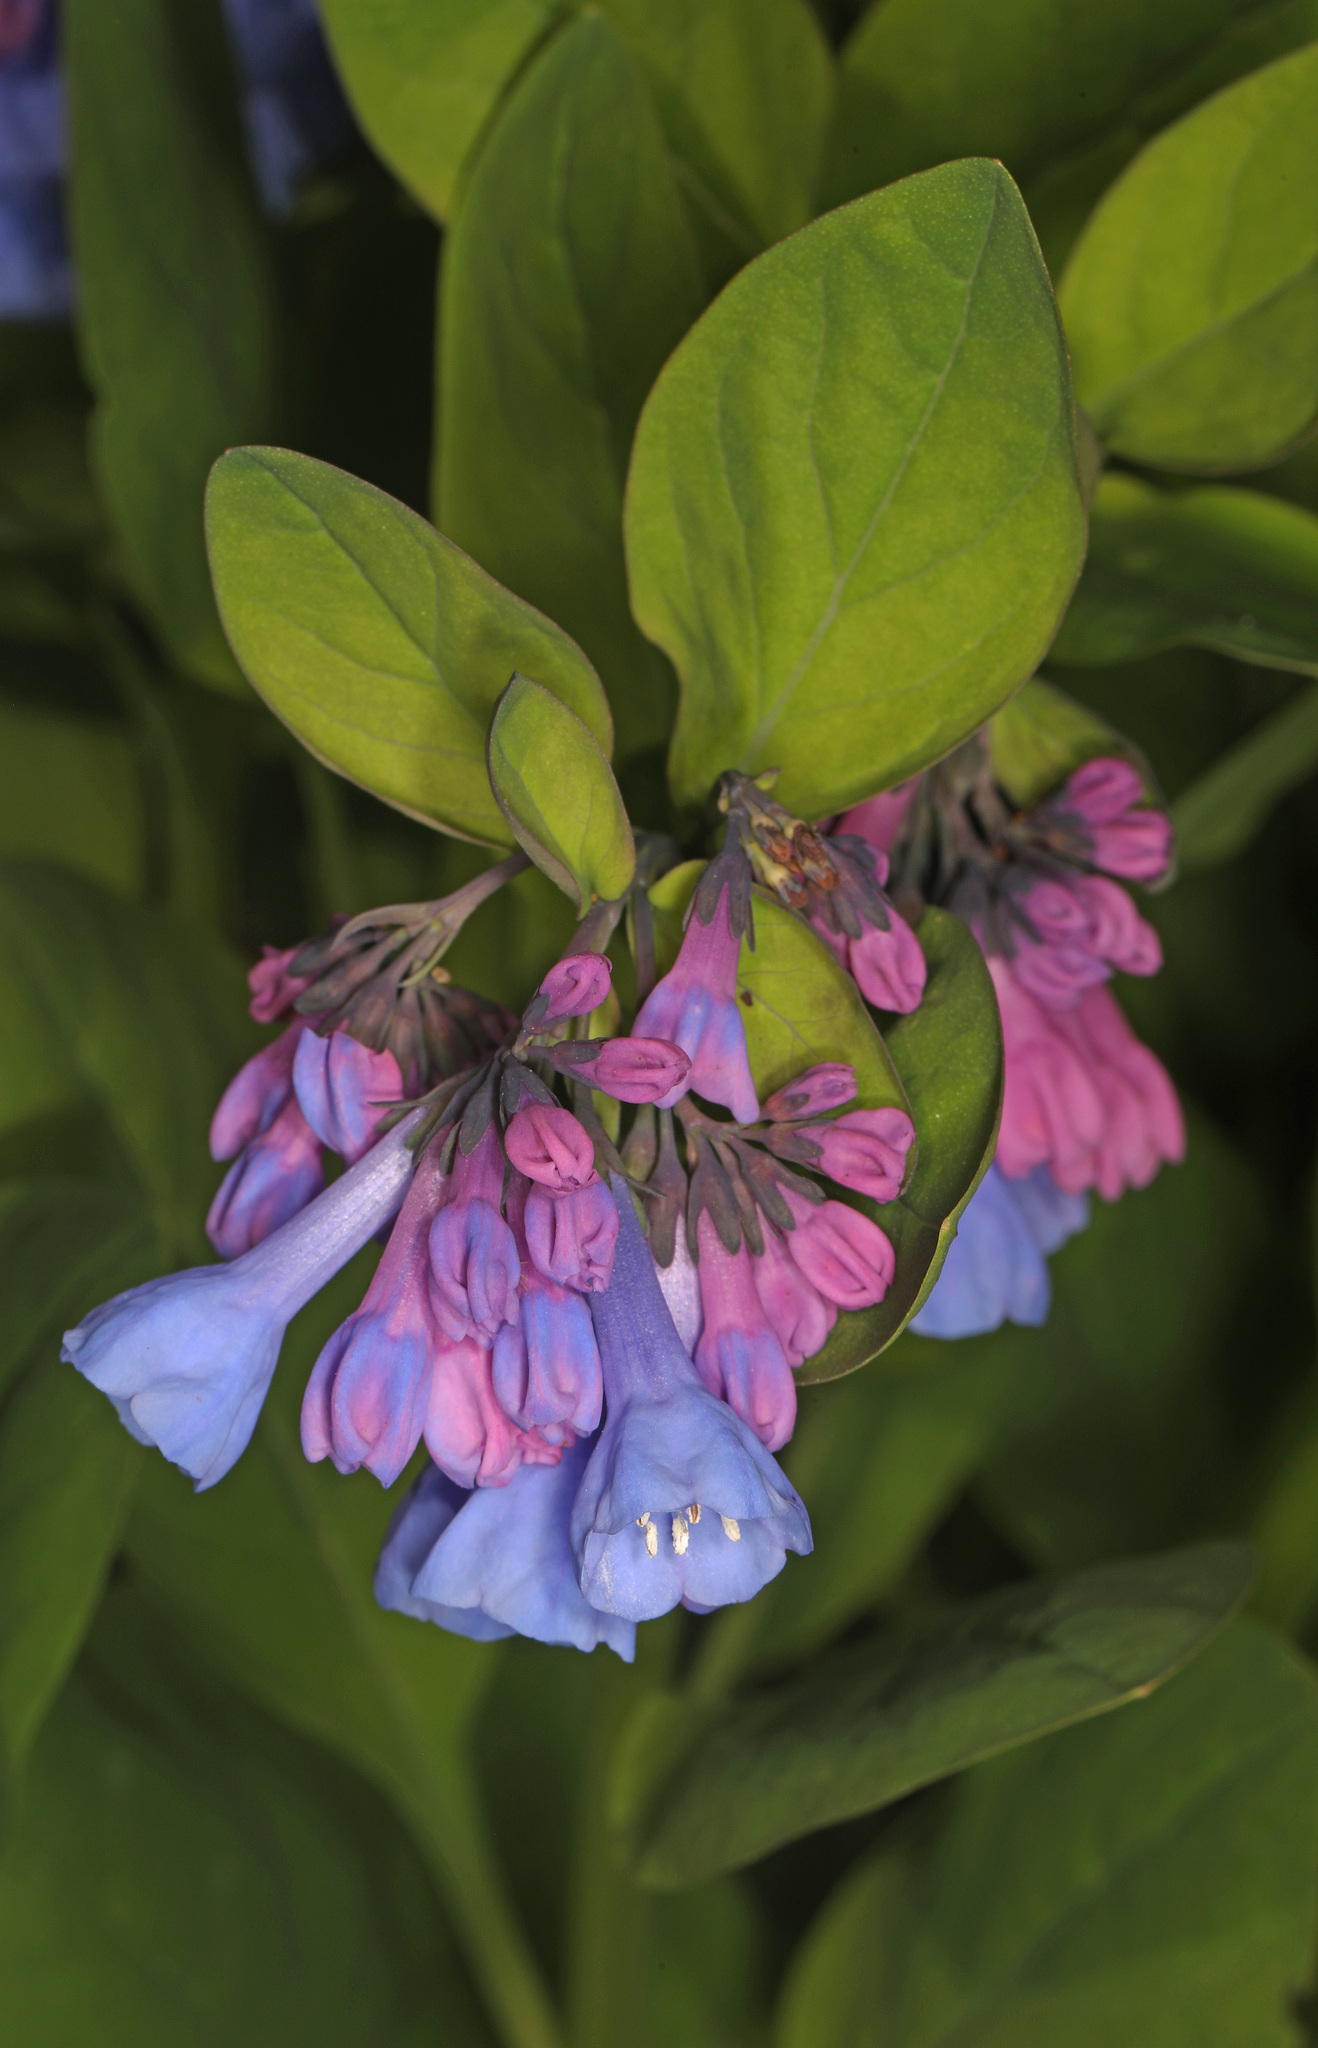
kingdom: Plantae
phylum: Tracheophyta
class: Magnoliopsida
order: Boraginales
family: Boraginaceae
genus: Mertensia
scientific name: Mertensia virginica
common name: Virginia bluebells
